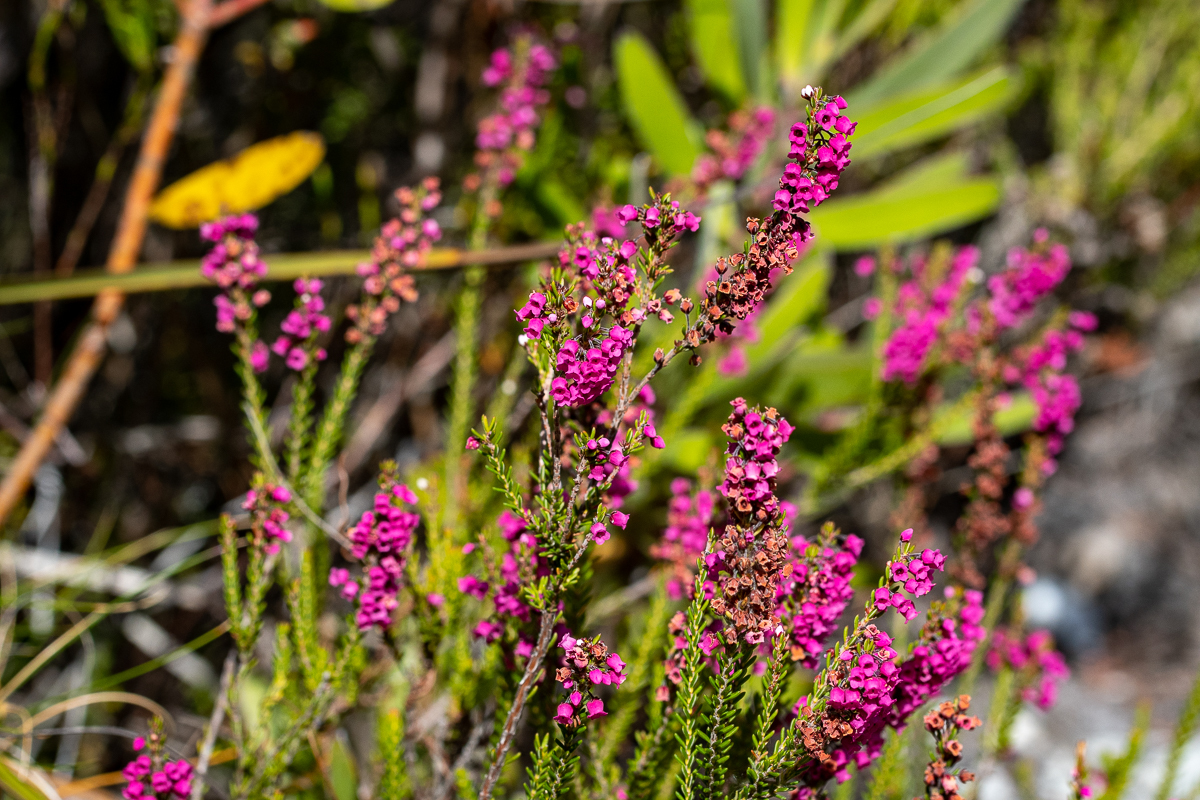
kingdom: Plantae
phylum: Tracheophyta
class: Magnoliopsida
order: Ericales
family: Ericaceae
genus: Erica
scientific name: Erica pulchella
